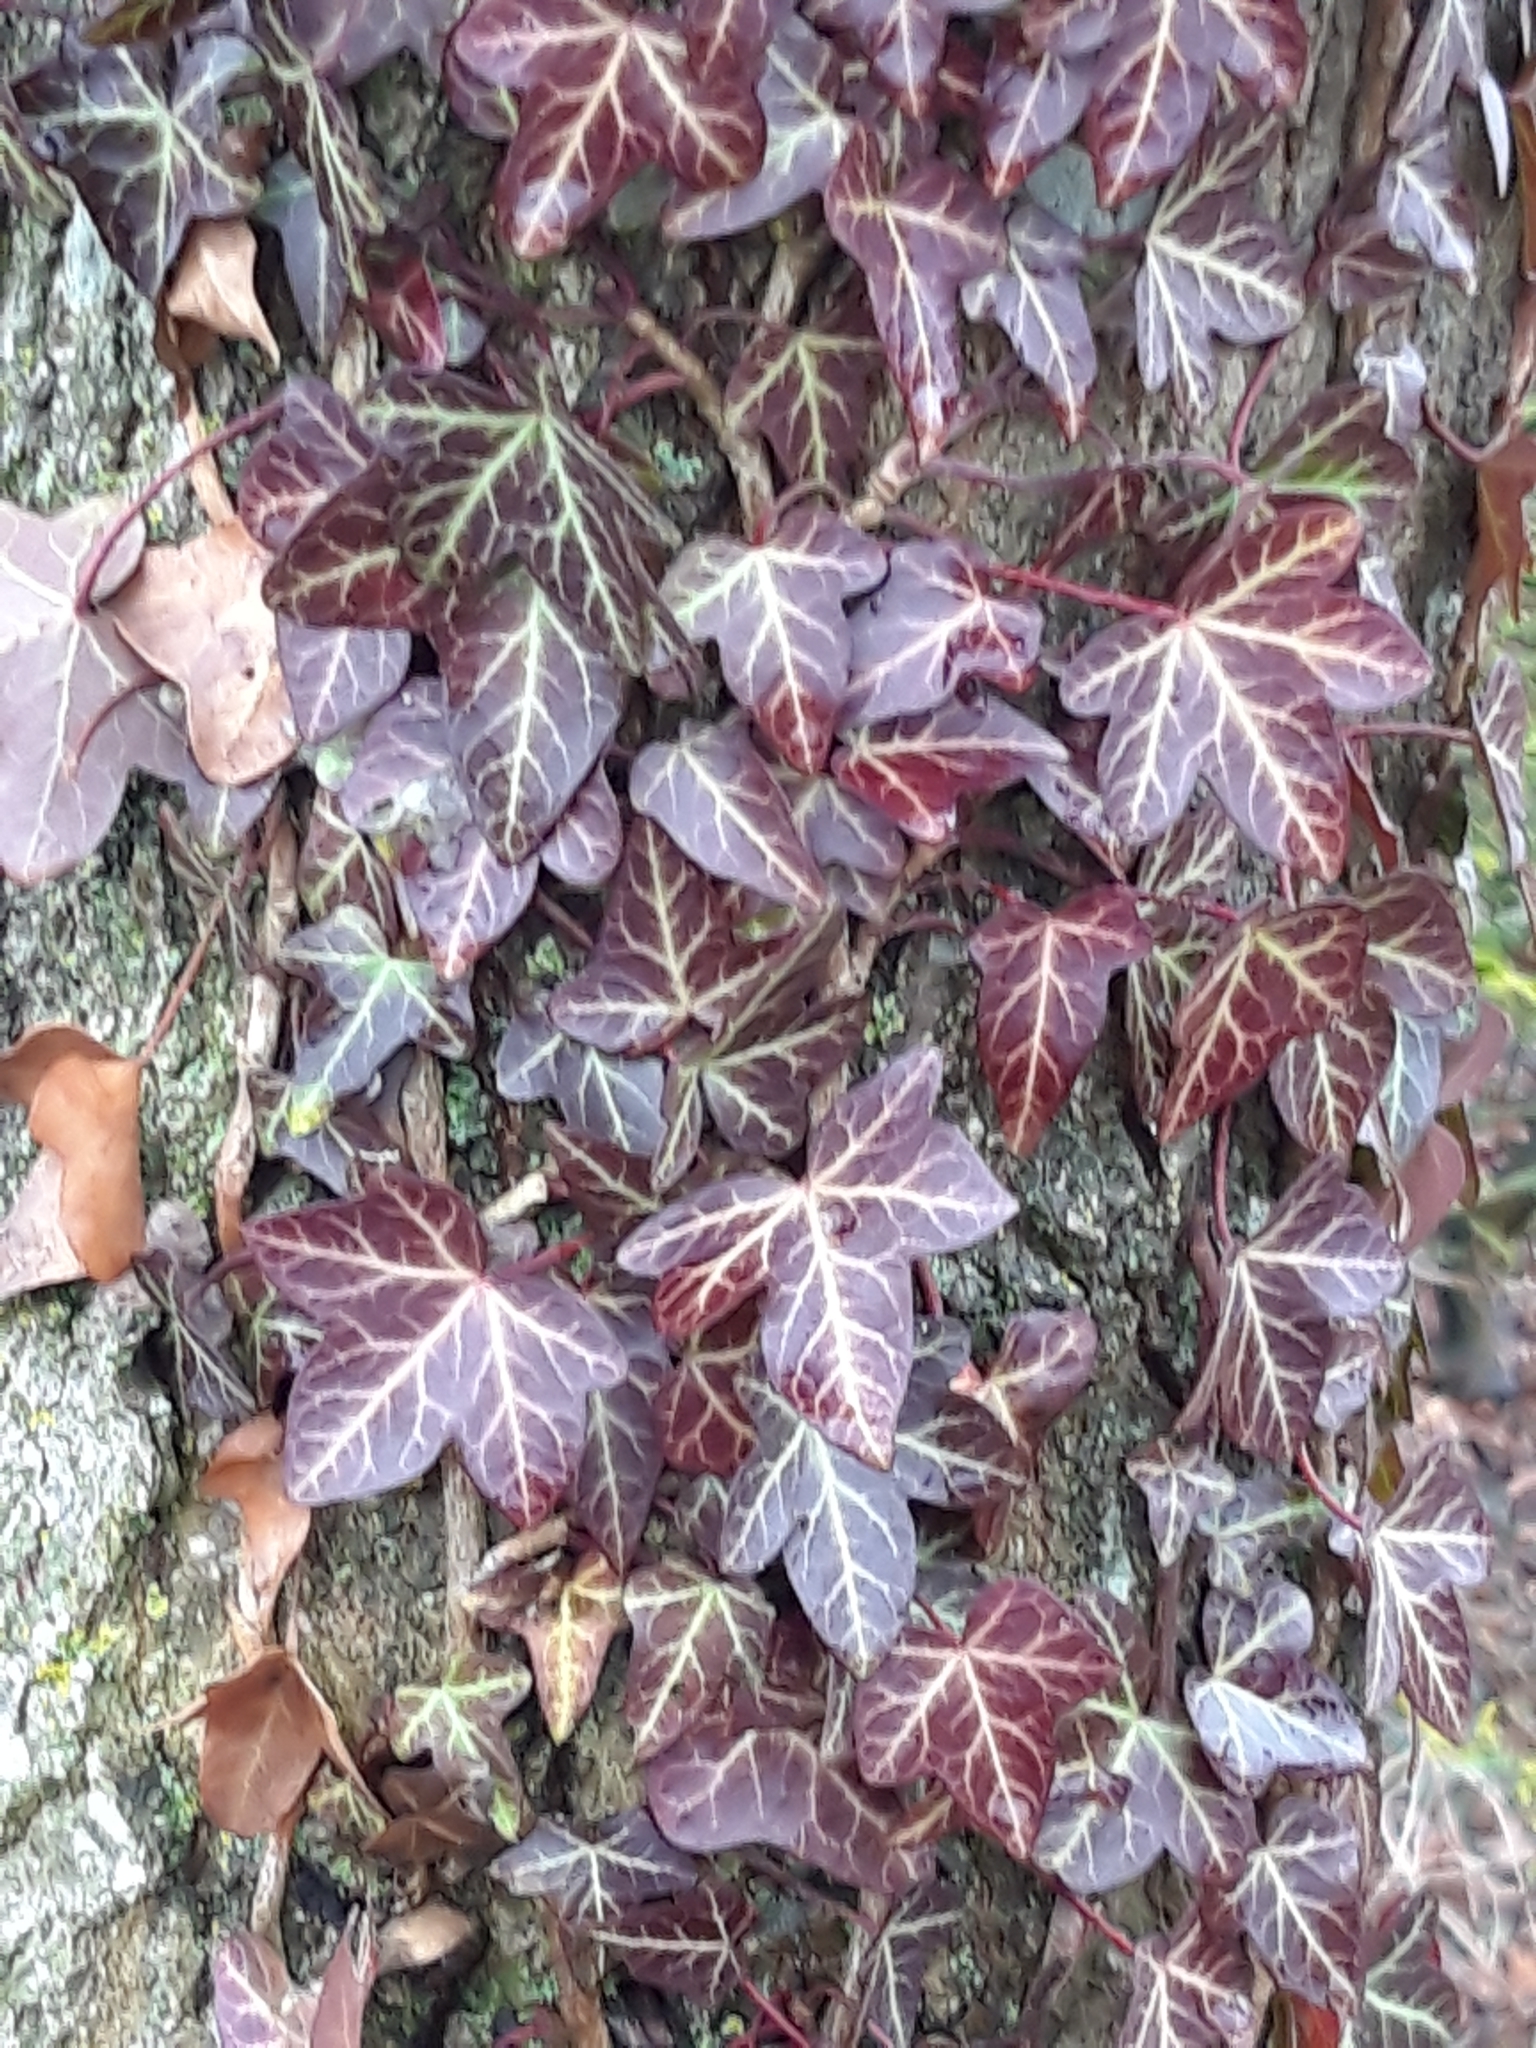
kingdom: Plantae
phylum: Tracheophyta
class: Magnoliopsida
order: Apiales
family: Araliaceae
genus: Hedera
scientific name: Hedera helix
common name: Ivy
